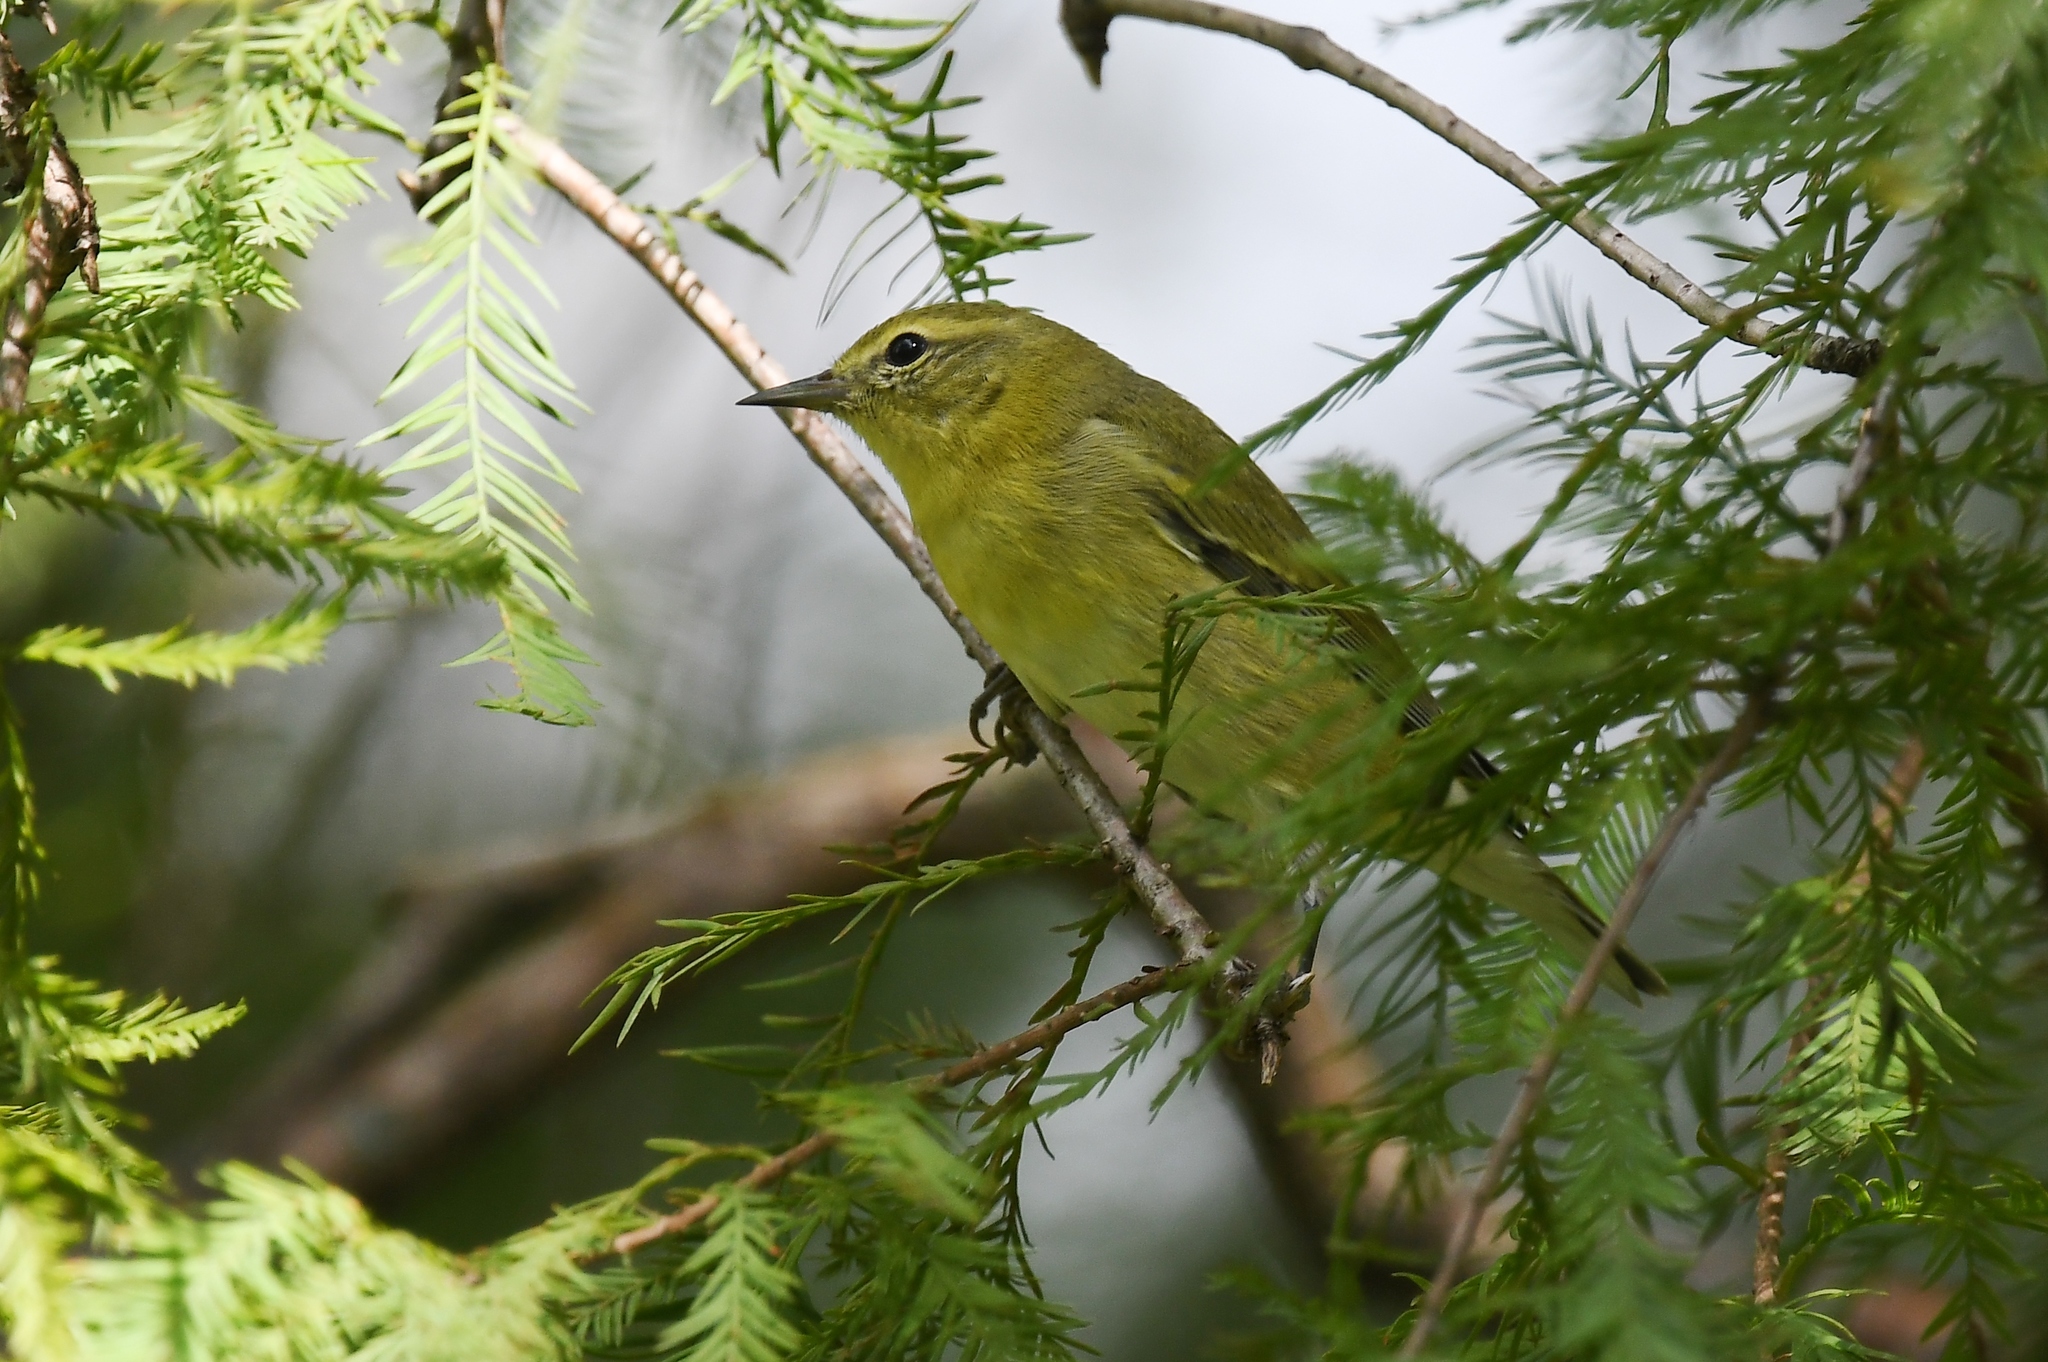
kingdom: Animalia
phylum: Chordata
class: Aves
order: Passeriformes
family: Parulidae
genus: Leiothlypis
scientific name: Leiothlypis peregrina
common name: Tennessee warbler
